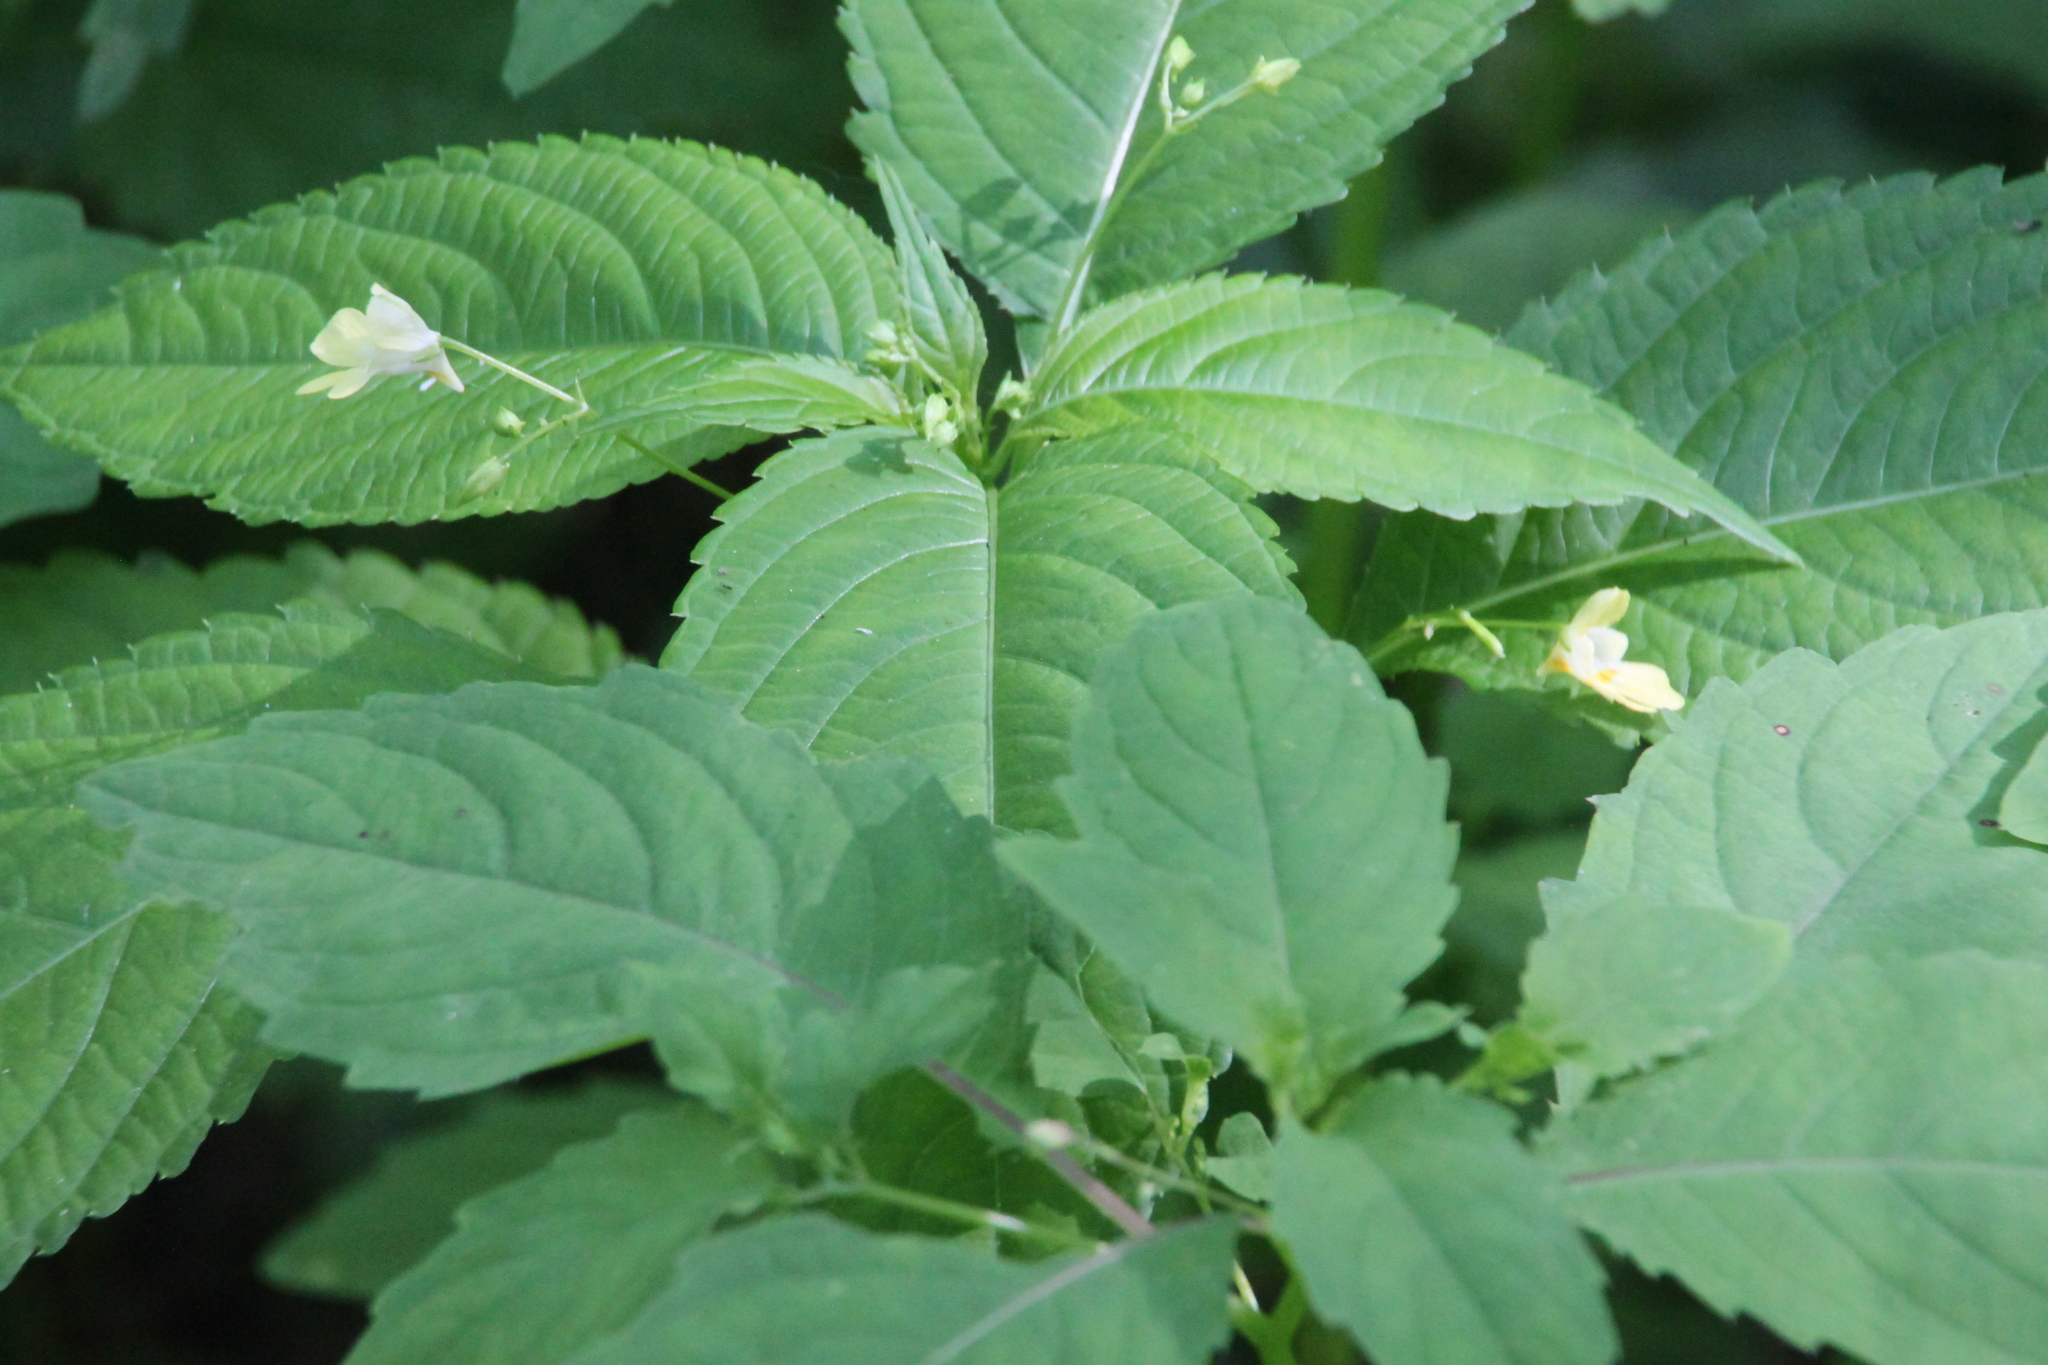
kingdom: Plantae
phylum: Tracheophyta
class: Magnoliopsida
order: Ericales
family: Balsaminaceae
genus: Impatiens
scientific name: Impatiens parviflora
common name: Small balsam
